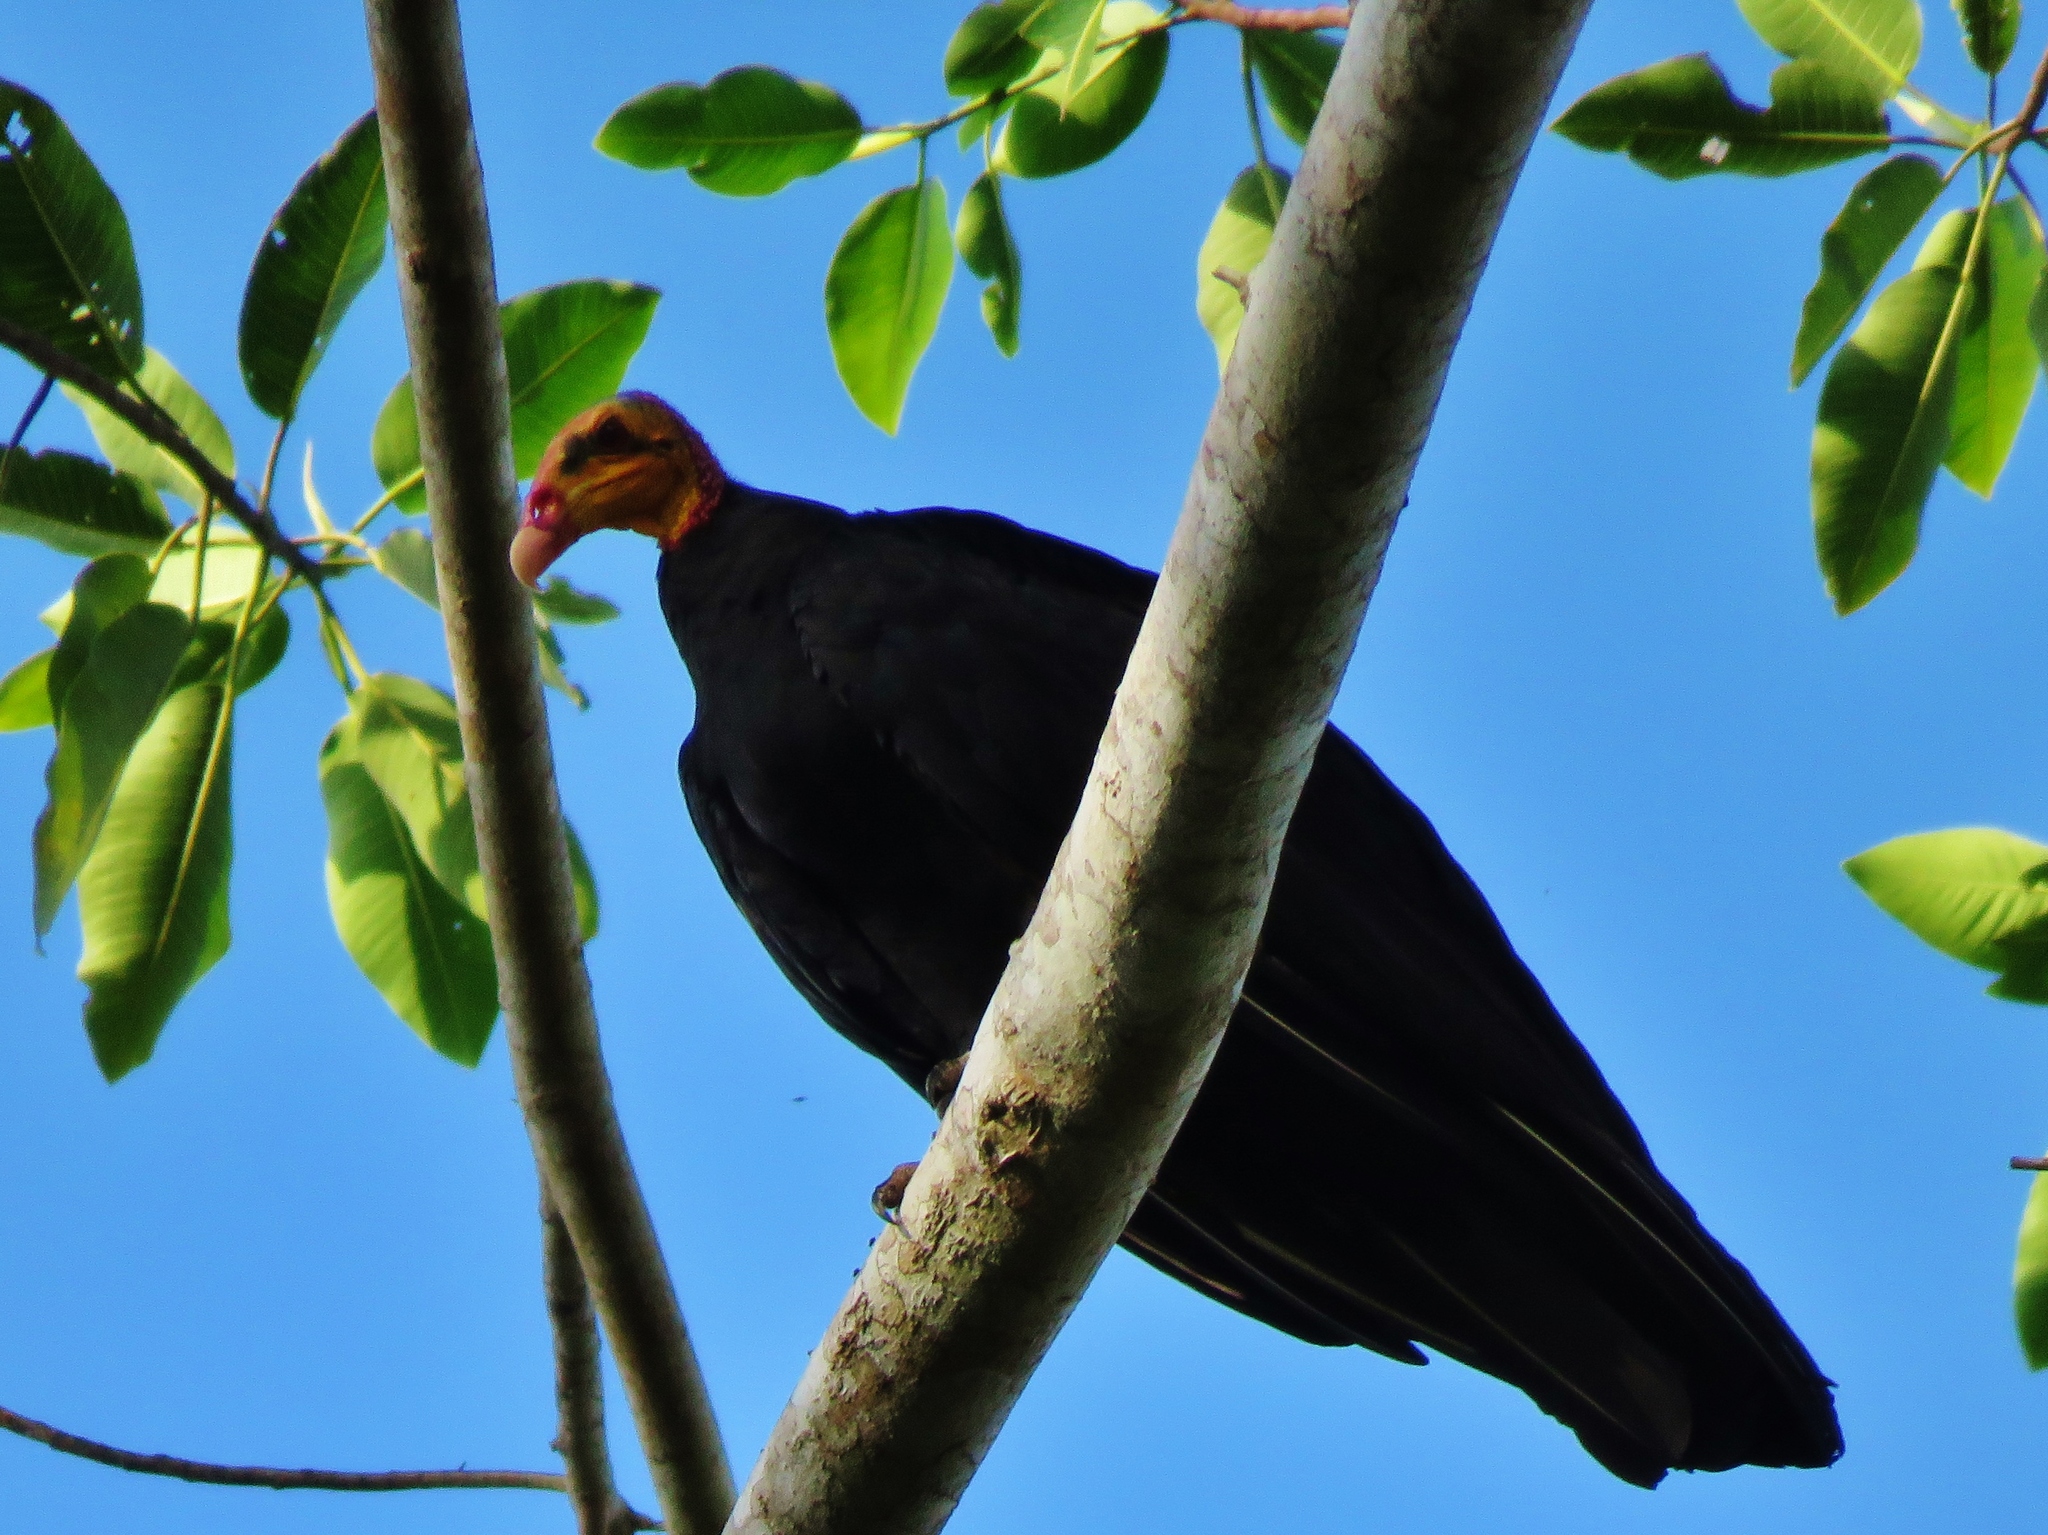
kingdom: Animalia
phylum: Chordata
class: Aves
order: Accipitriformes
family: Cathartidae
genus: Cathartes
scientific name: Cathartes melambrotus
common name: Greater yellow-headed vulture
